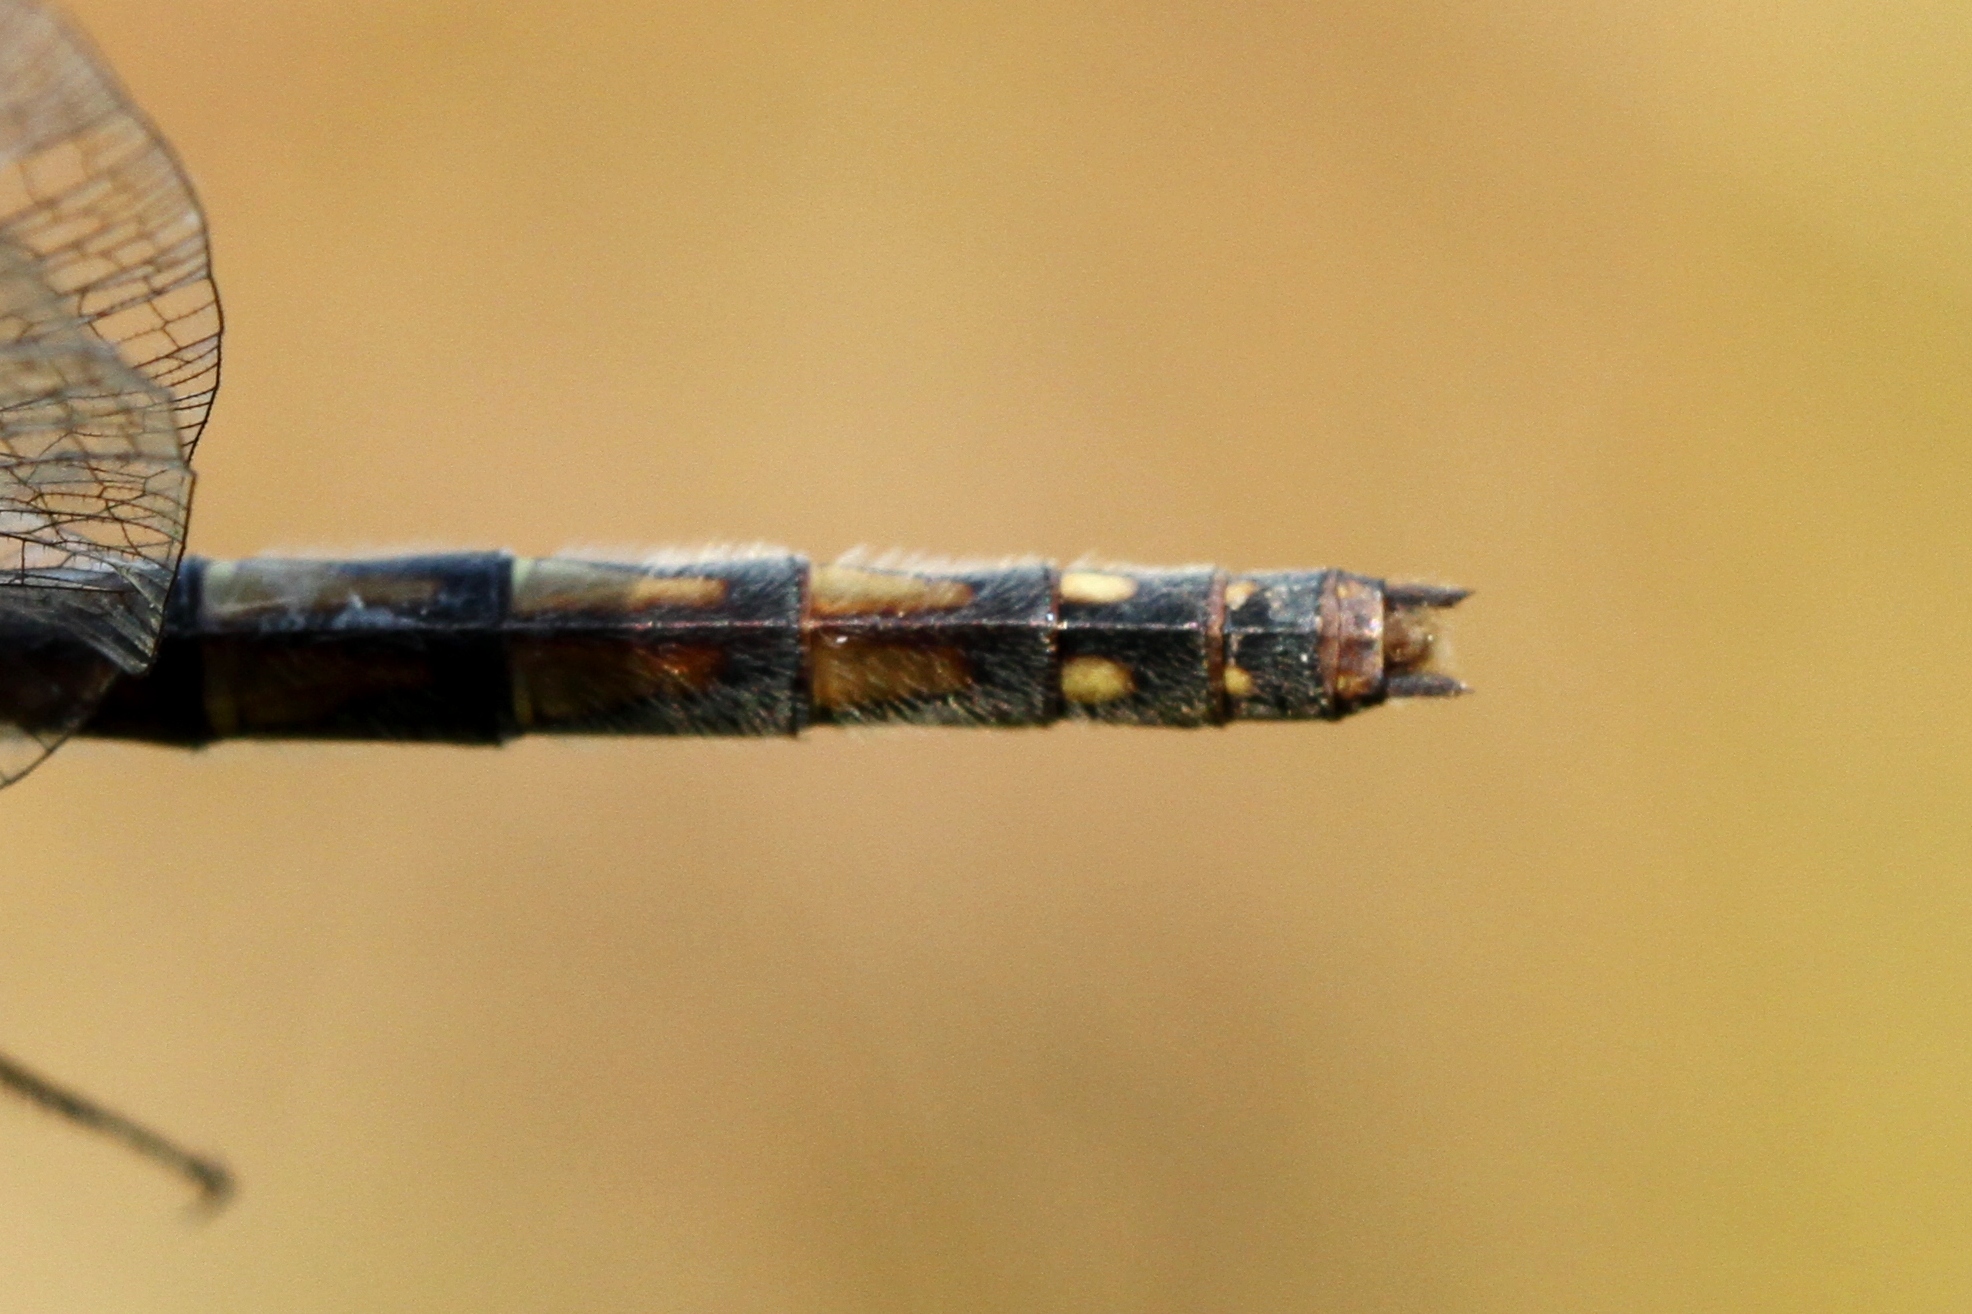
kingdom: Animalia
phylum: Arthropoda
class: Insecta
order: Odonata
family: Libellulidae
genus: Sympetrum
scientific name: Sympetrum danae
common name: Black darter
